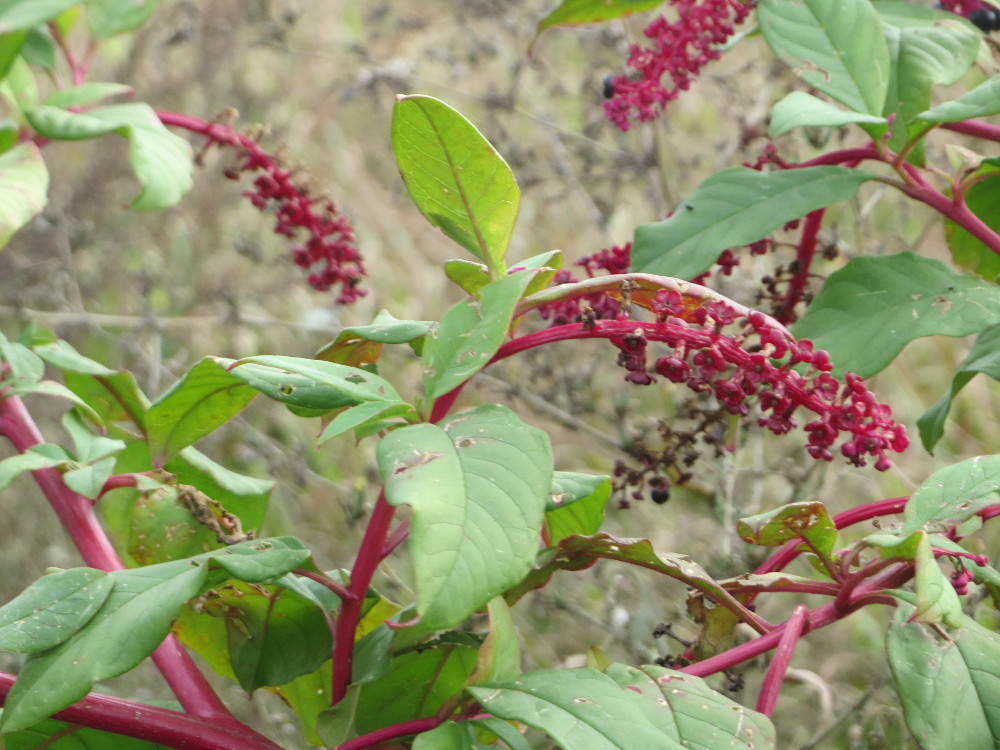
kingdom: Plantae
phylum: Tracheophyta
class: Magnoliopsida
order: Caryophyllales
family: Phytolaccaceae
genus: Phytolacca
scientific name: Phytolacca americana
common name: American pokeweed
